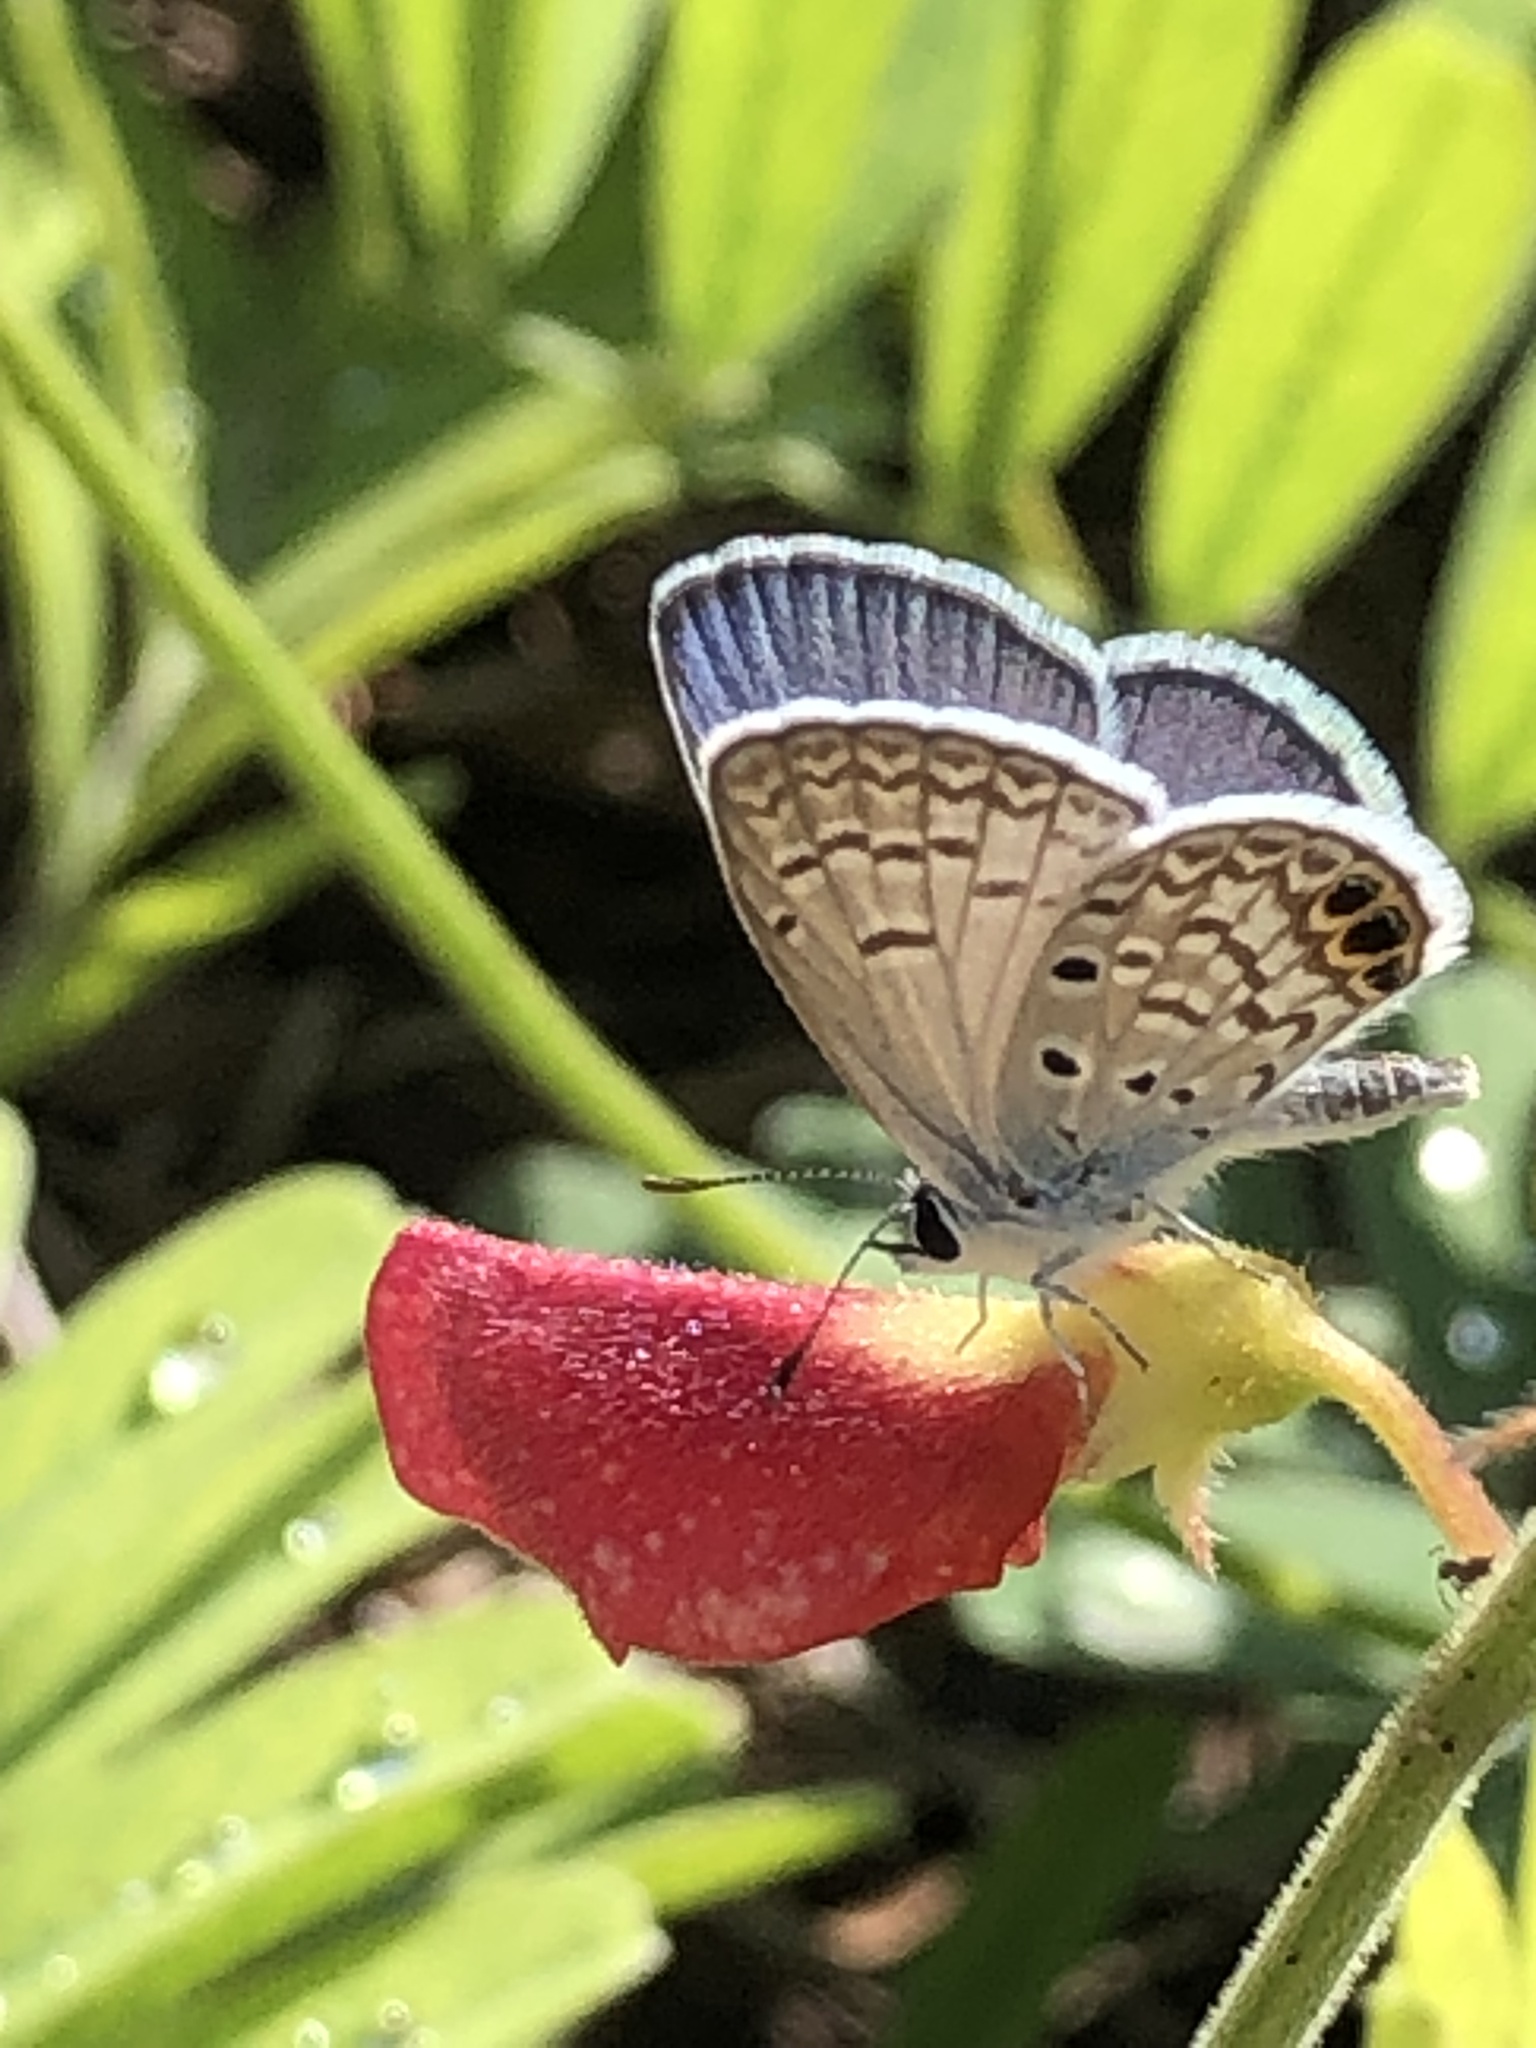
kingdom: Animalia
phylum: Arthropoda
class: Insecta
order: Lepidoptera
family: Lycaenidae
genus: Hemiargus
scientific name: Hemiargus ceraunus
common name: Ceraunus blue
